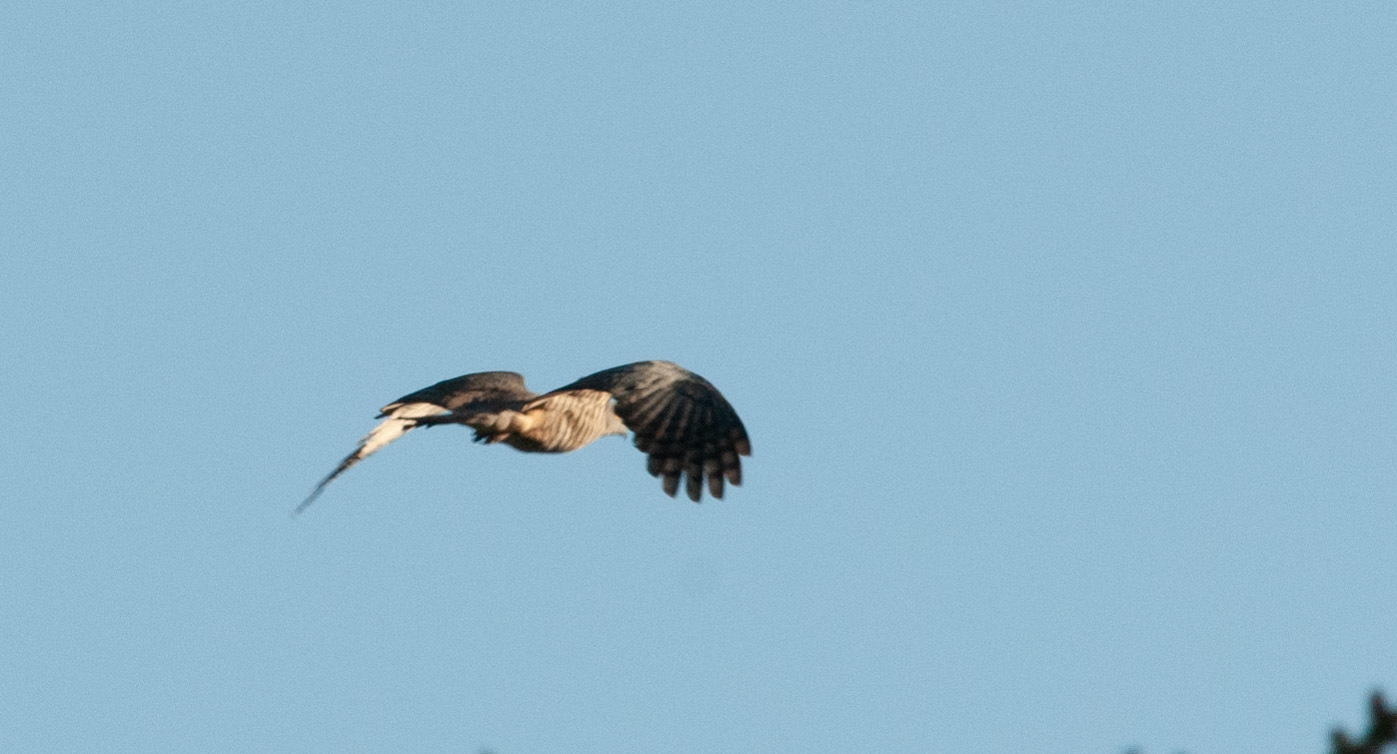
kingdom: Animalia
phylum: Chordata
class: Aves
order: Accipitriformes
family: Accipitridae
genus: Aviceda
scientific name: Aviceda subcristata
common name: Pacific baza
